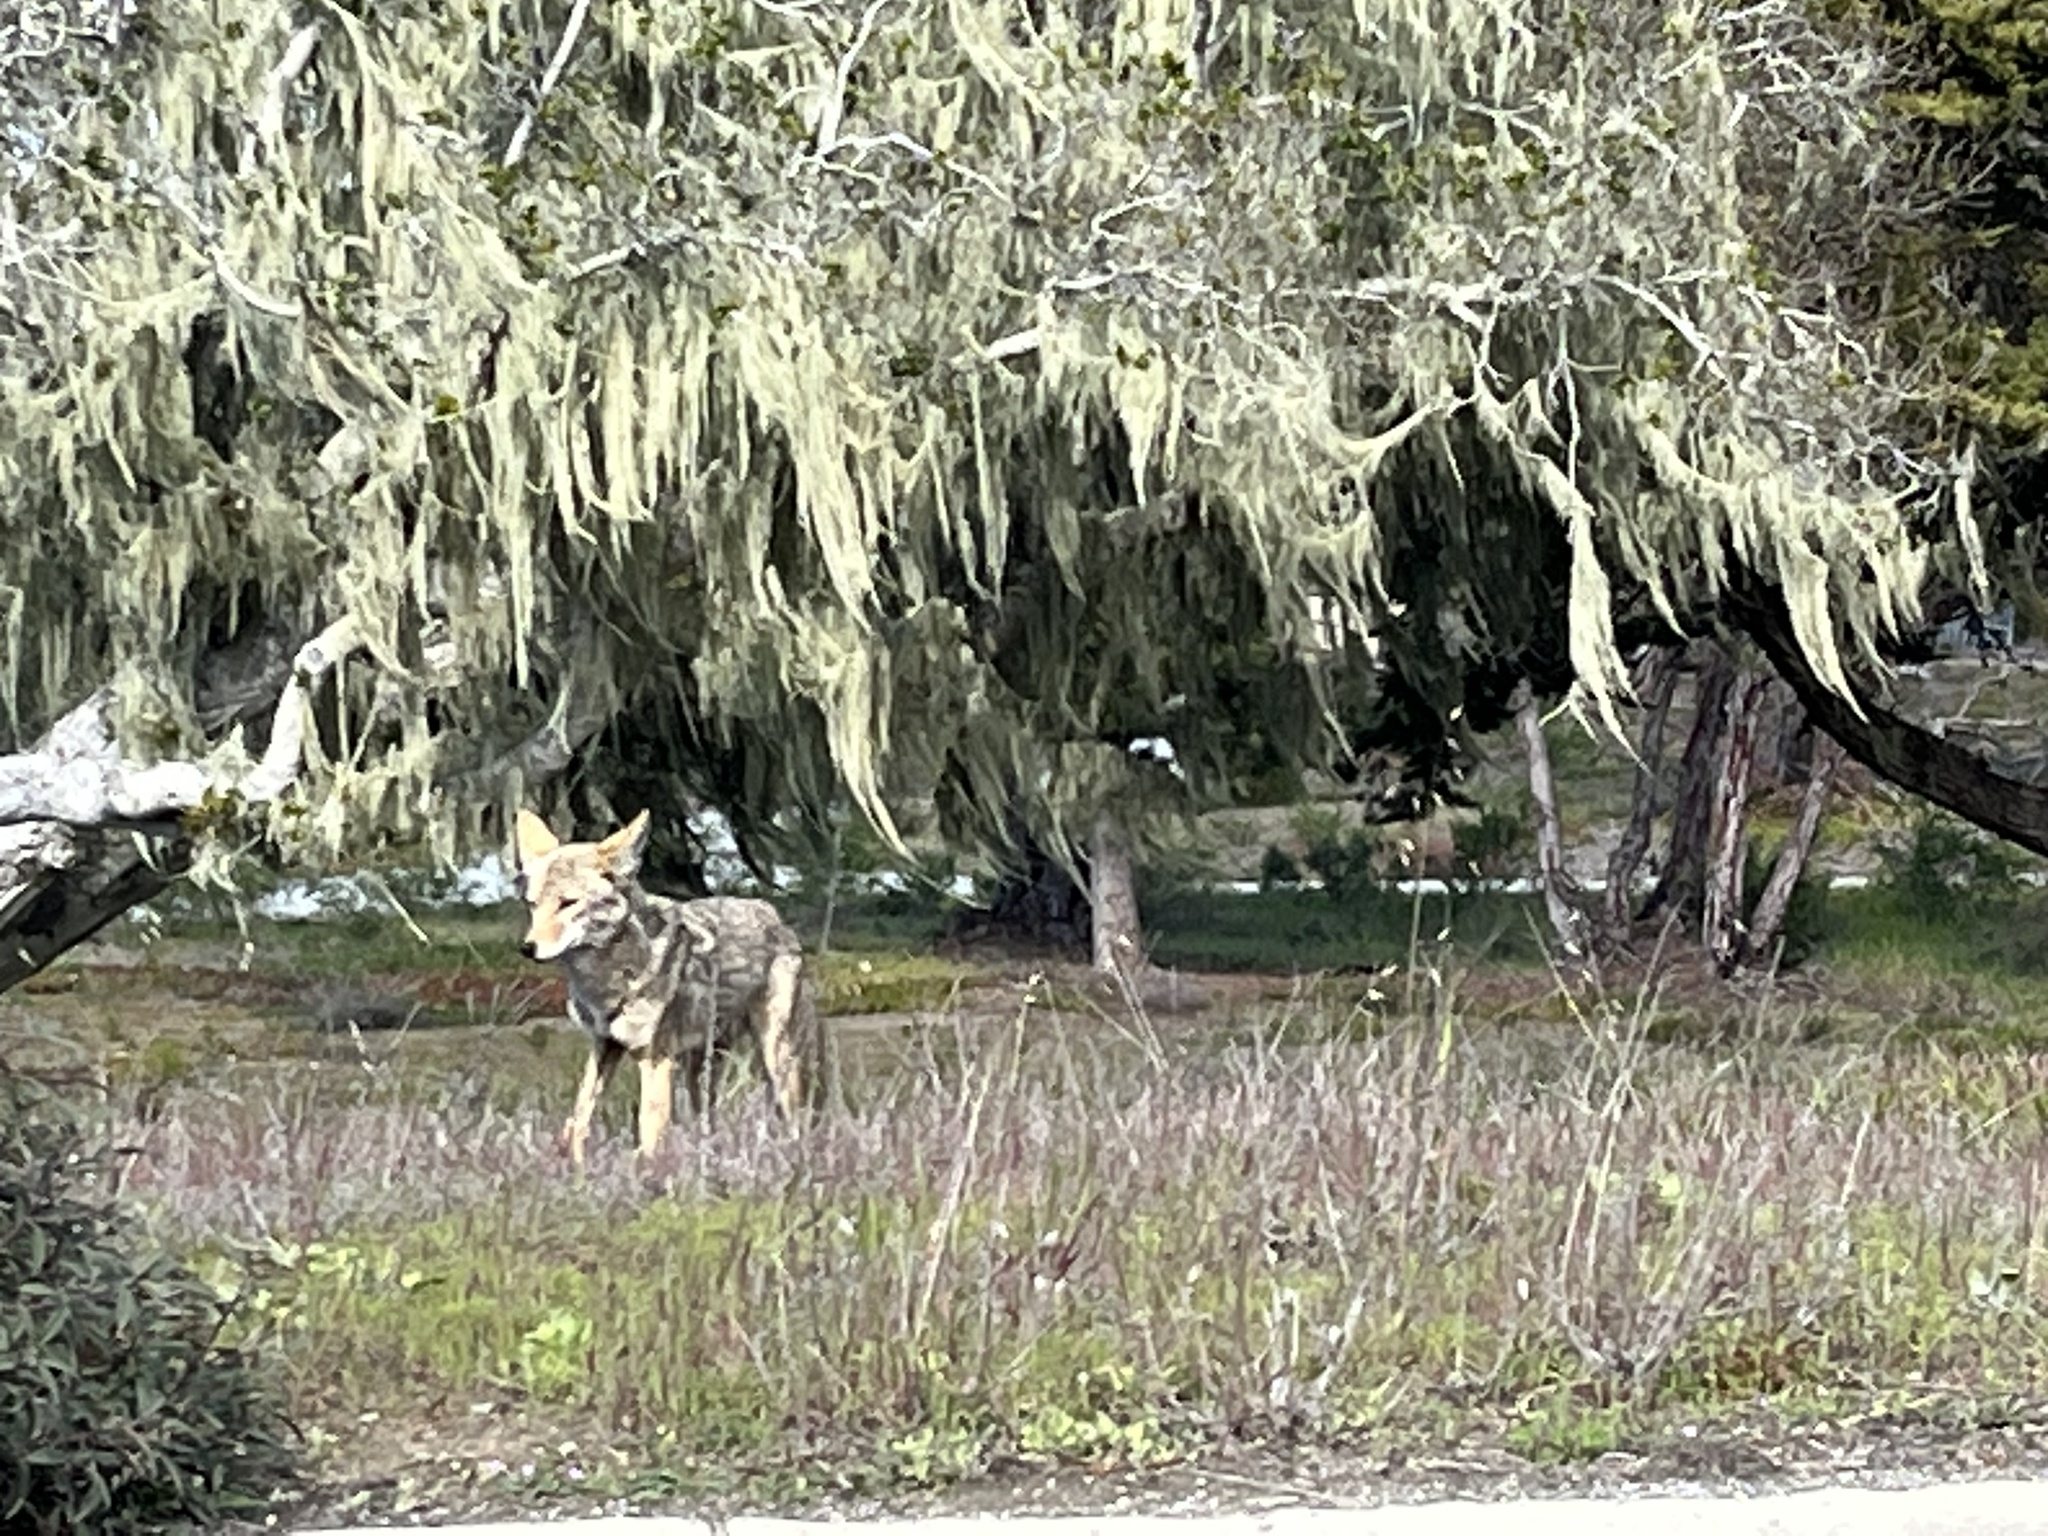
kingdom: Animalia
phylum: Chordata
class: Mammalia
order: Carnivora
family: Canidae
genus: Canis
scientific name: Canis latrans
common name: Coyote
